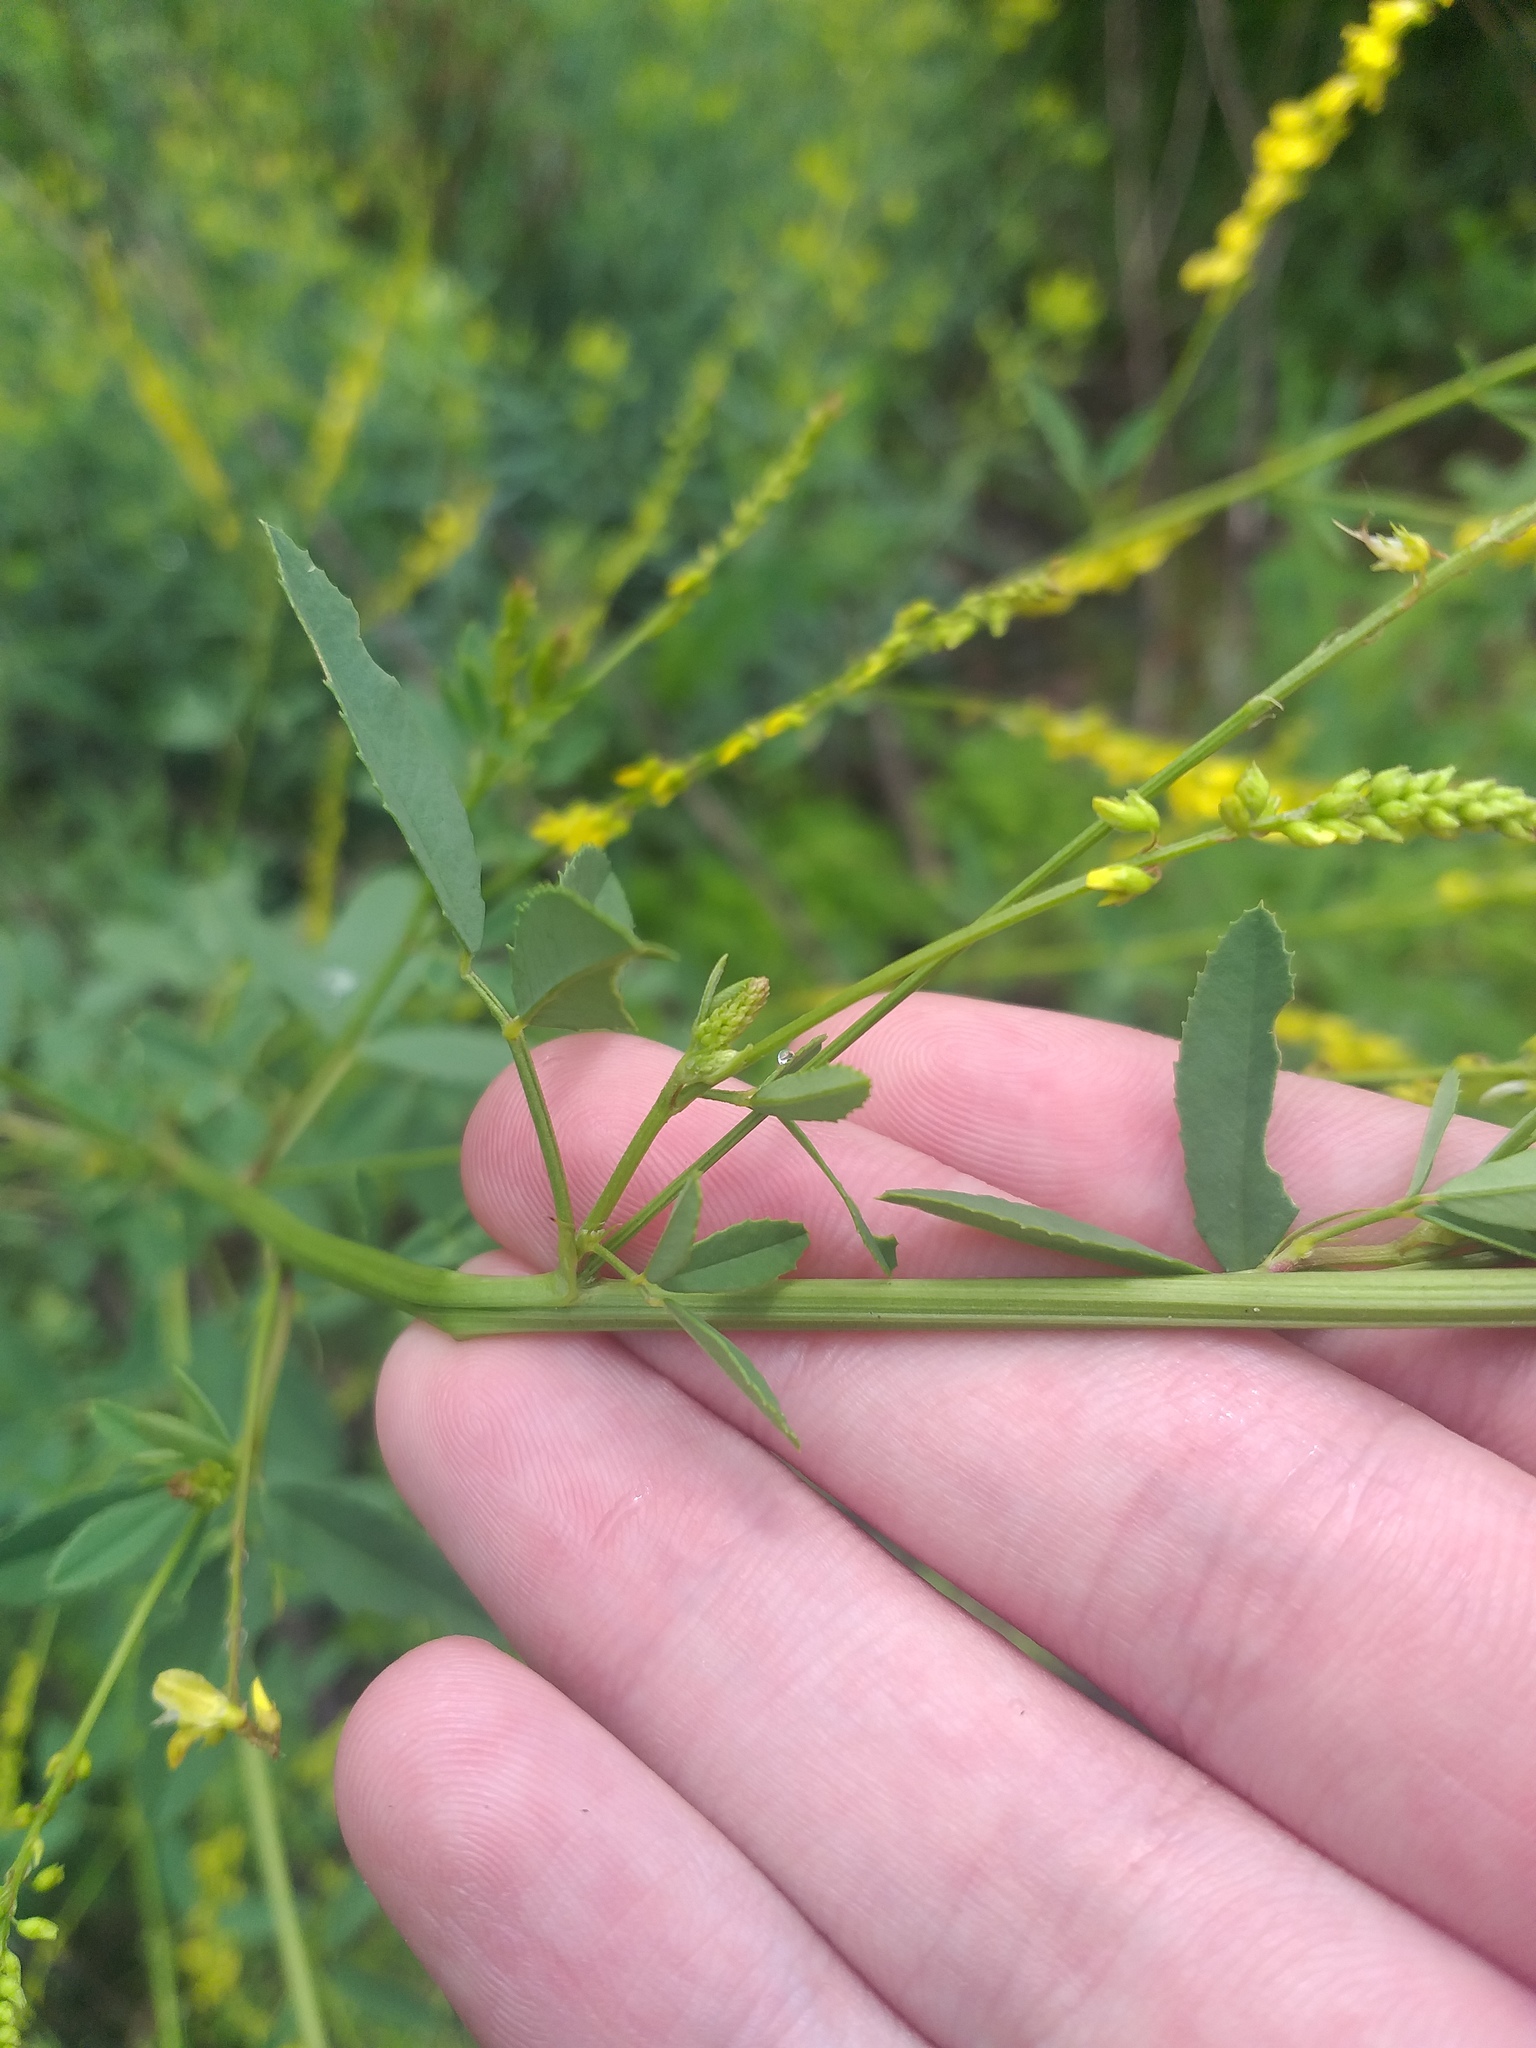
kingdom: Plantae
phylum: Tracheophyta
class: Magnoliopsida
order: Fabales
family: Fabaceae
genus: Melilotus
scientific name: Melilotus officinalis
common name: Sweetclover
